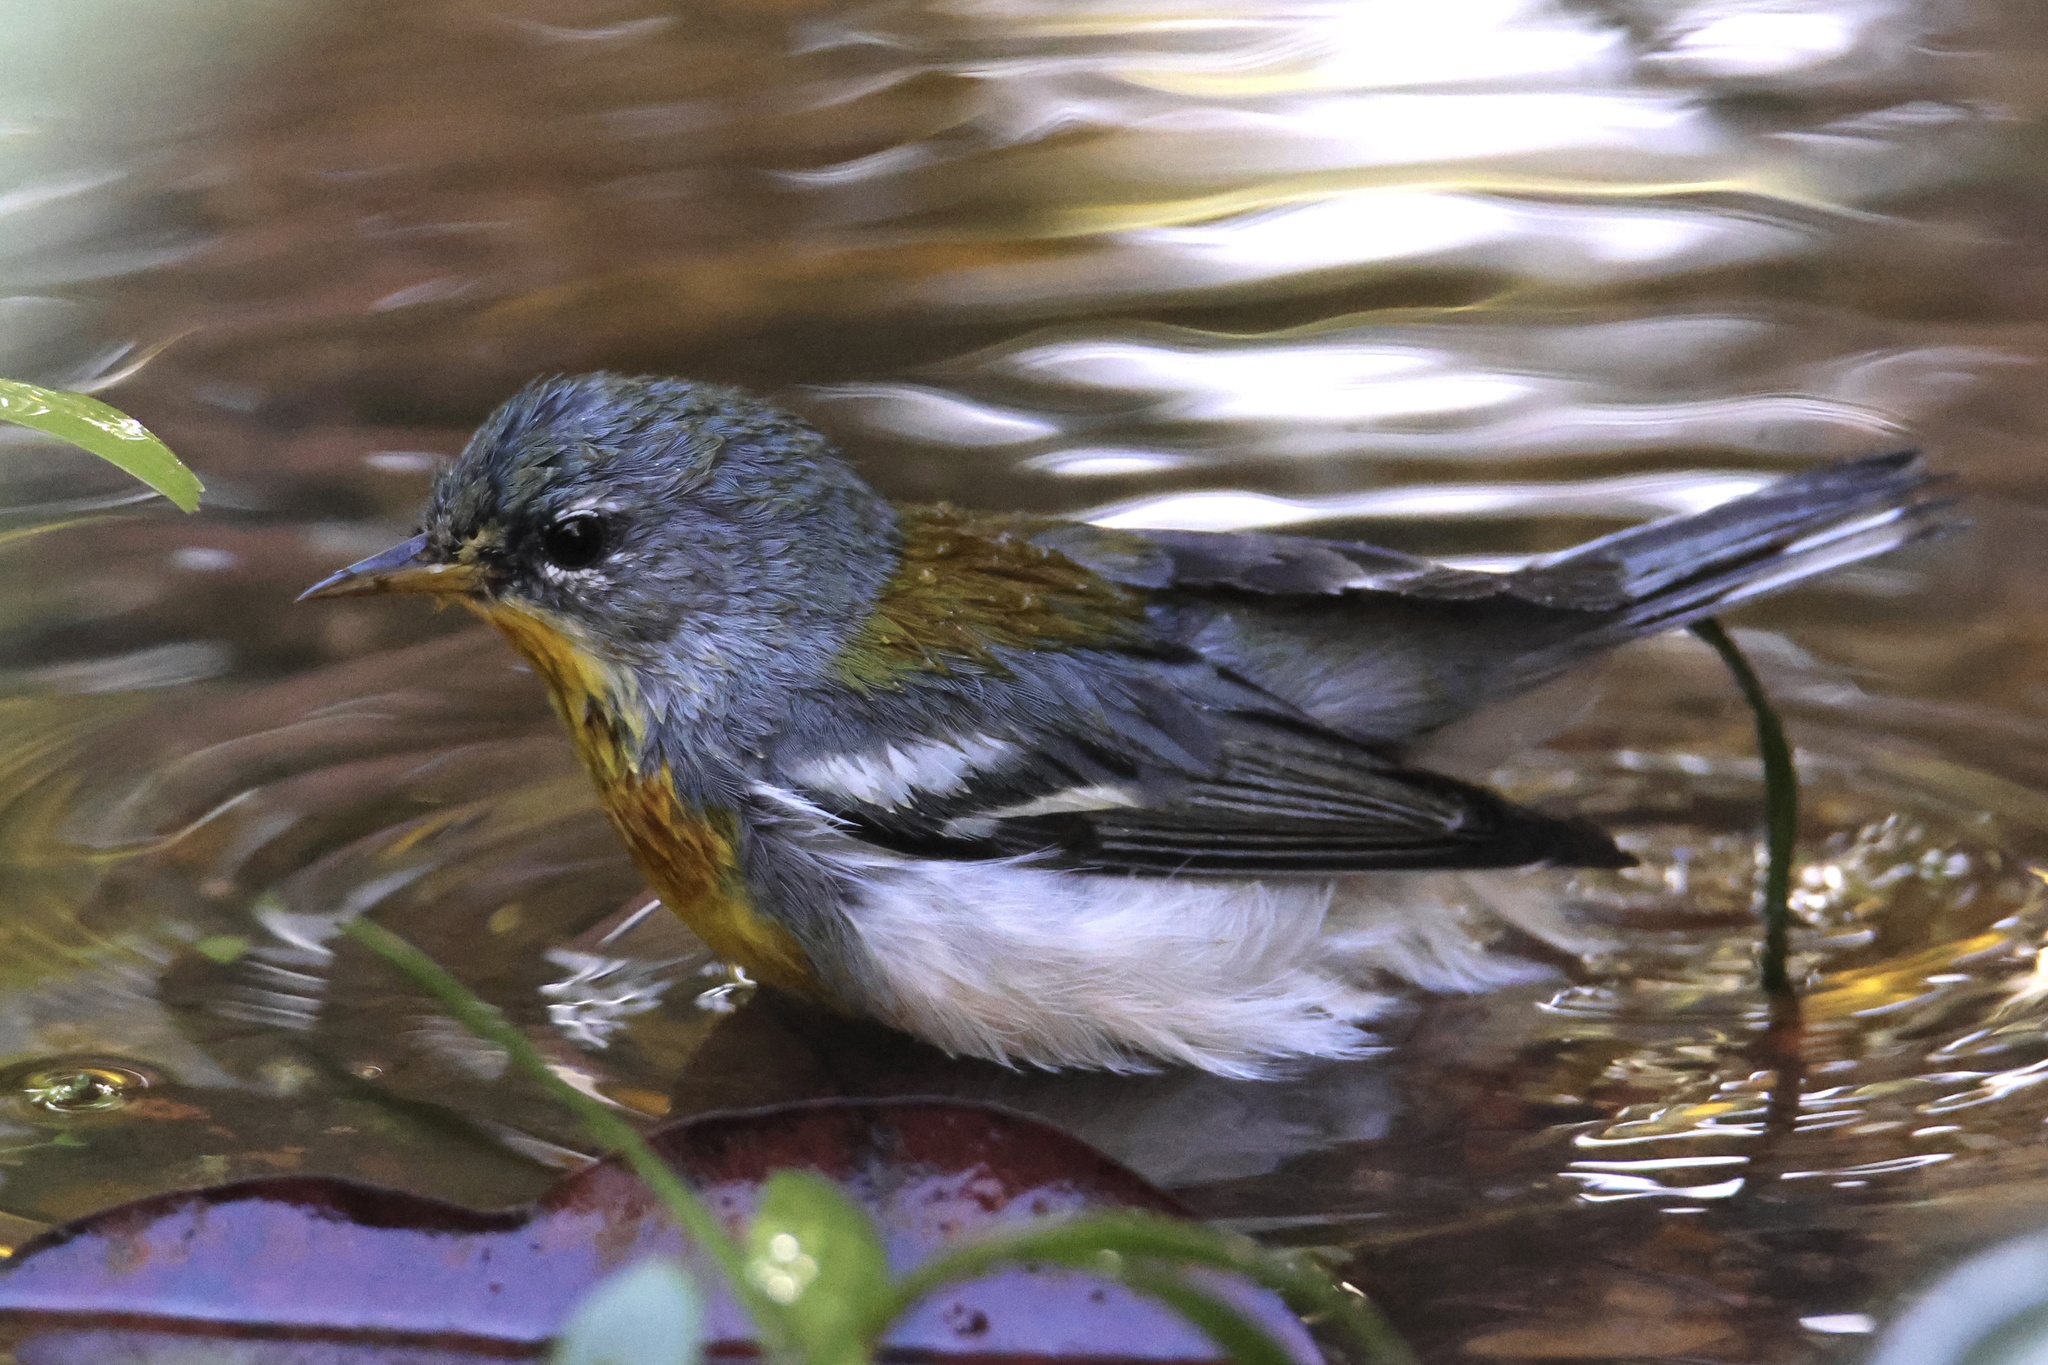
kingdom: Animalia
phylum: Chordata
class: Aves
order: Passeriformes
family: Parulidae
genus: Setophaga
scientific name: Setophaga americana
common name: Northern parula
